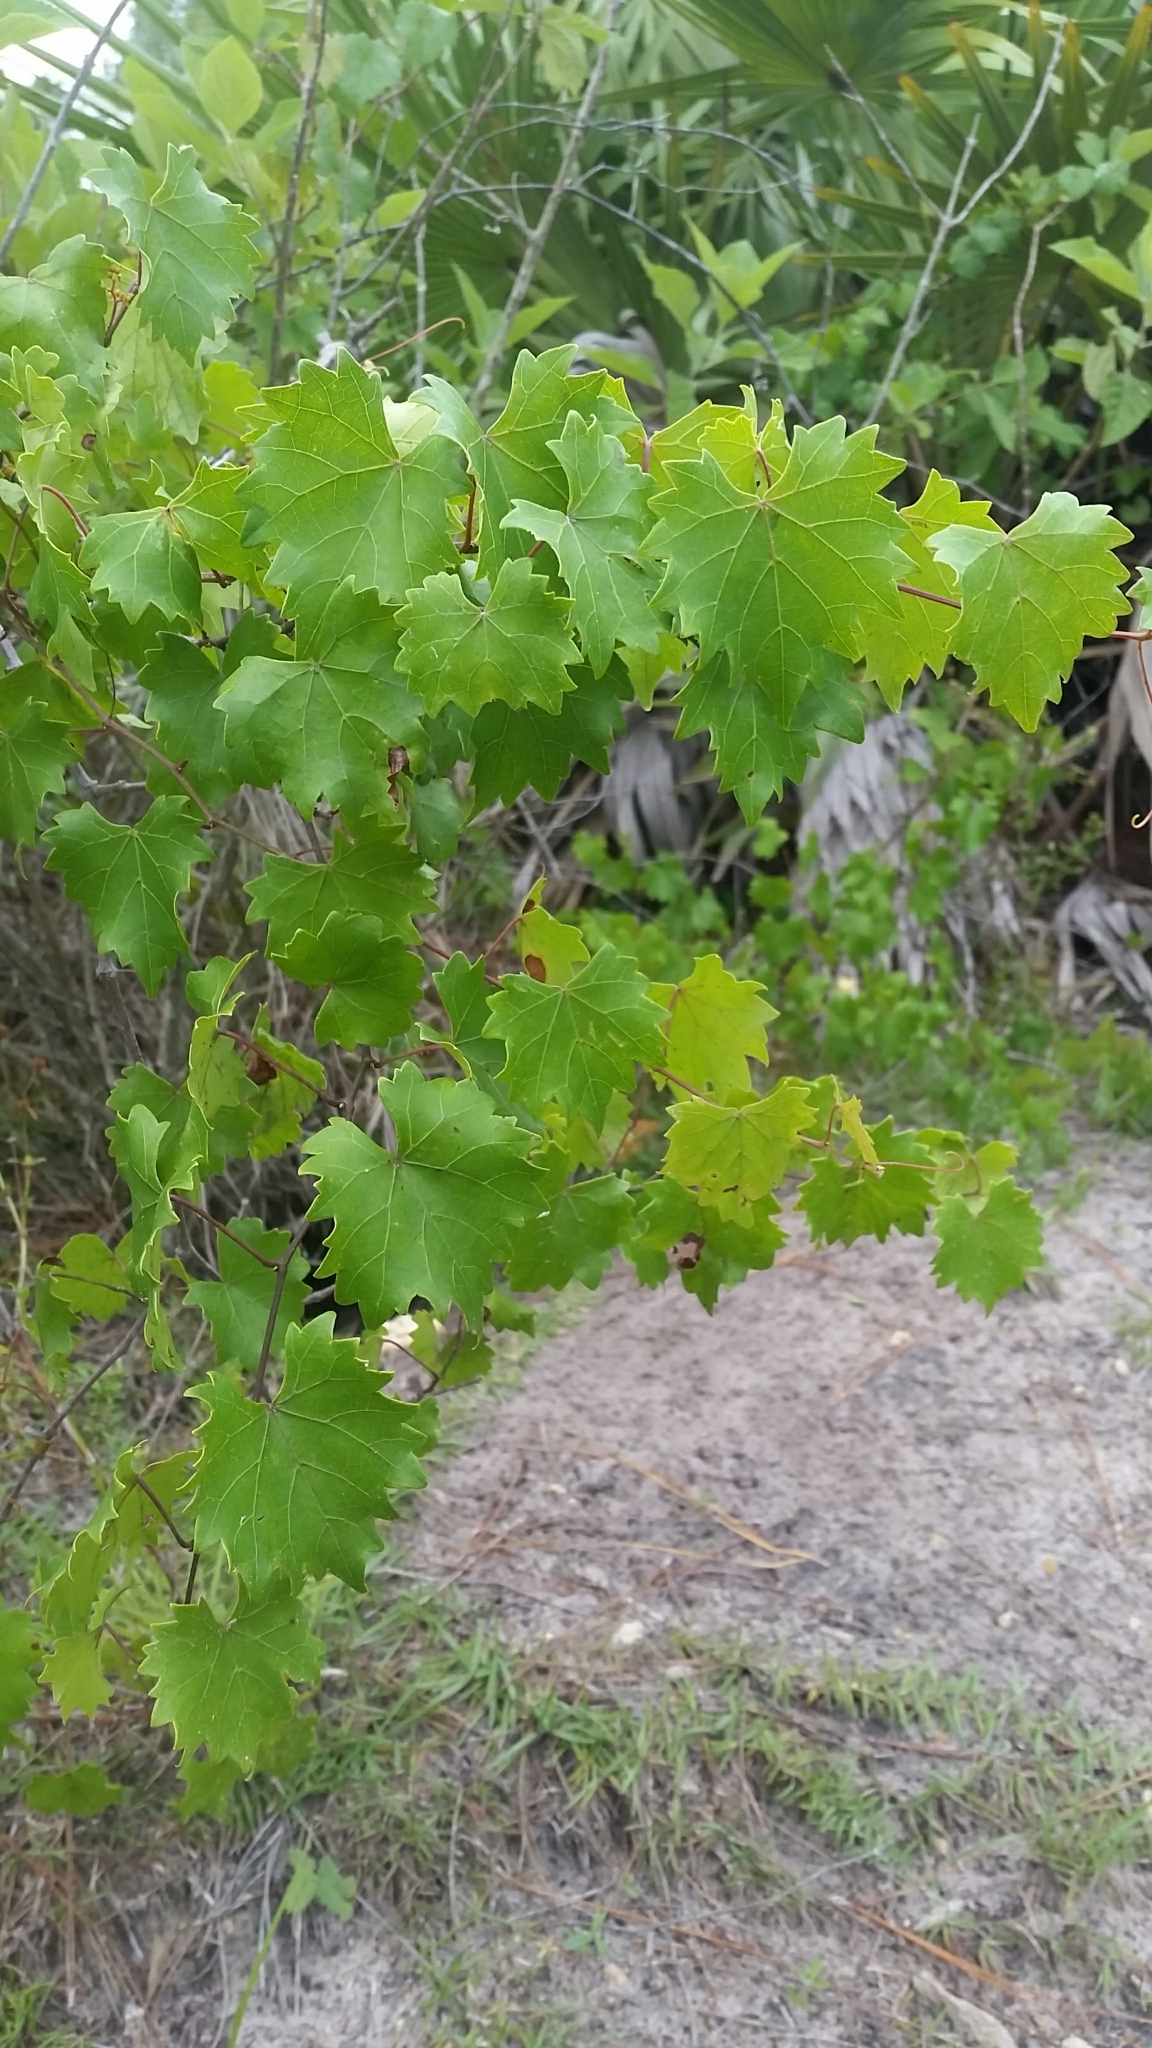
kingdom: Plantae
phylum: Tracheophyta
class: Magnoliopsida
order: Vitales
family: Vitaceae
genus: Vitis
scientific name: Vitis rotundifolia
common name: Muscadine grape
